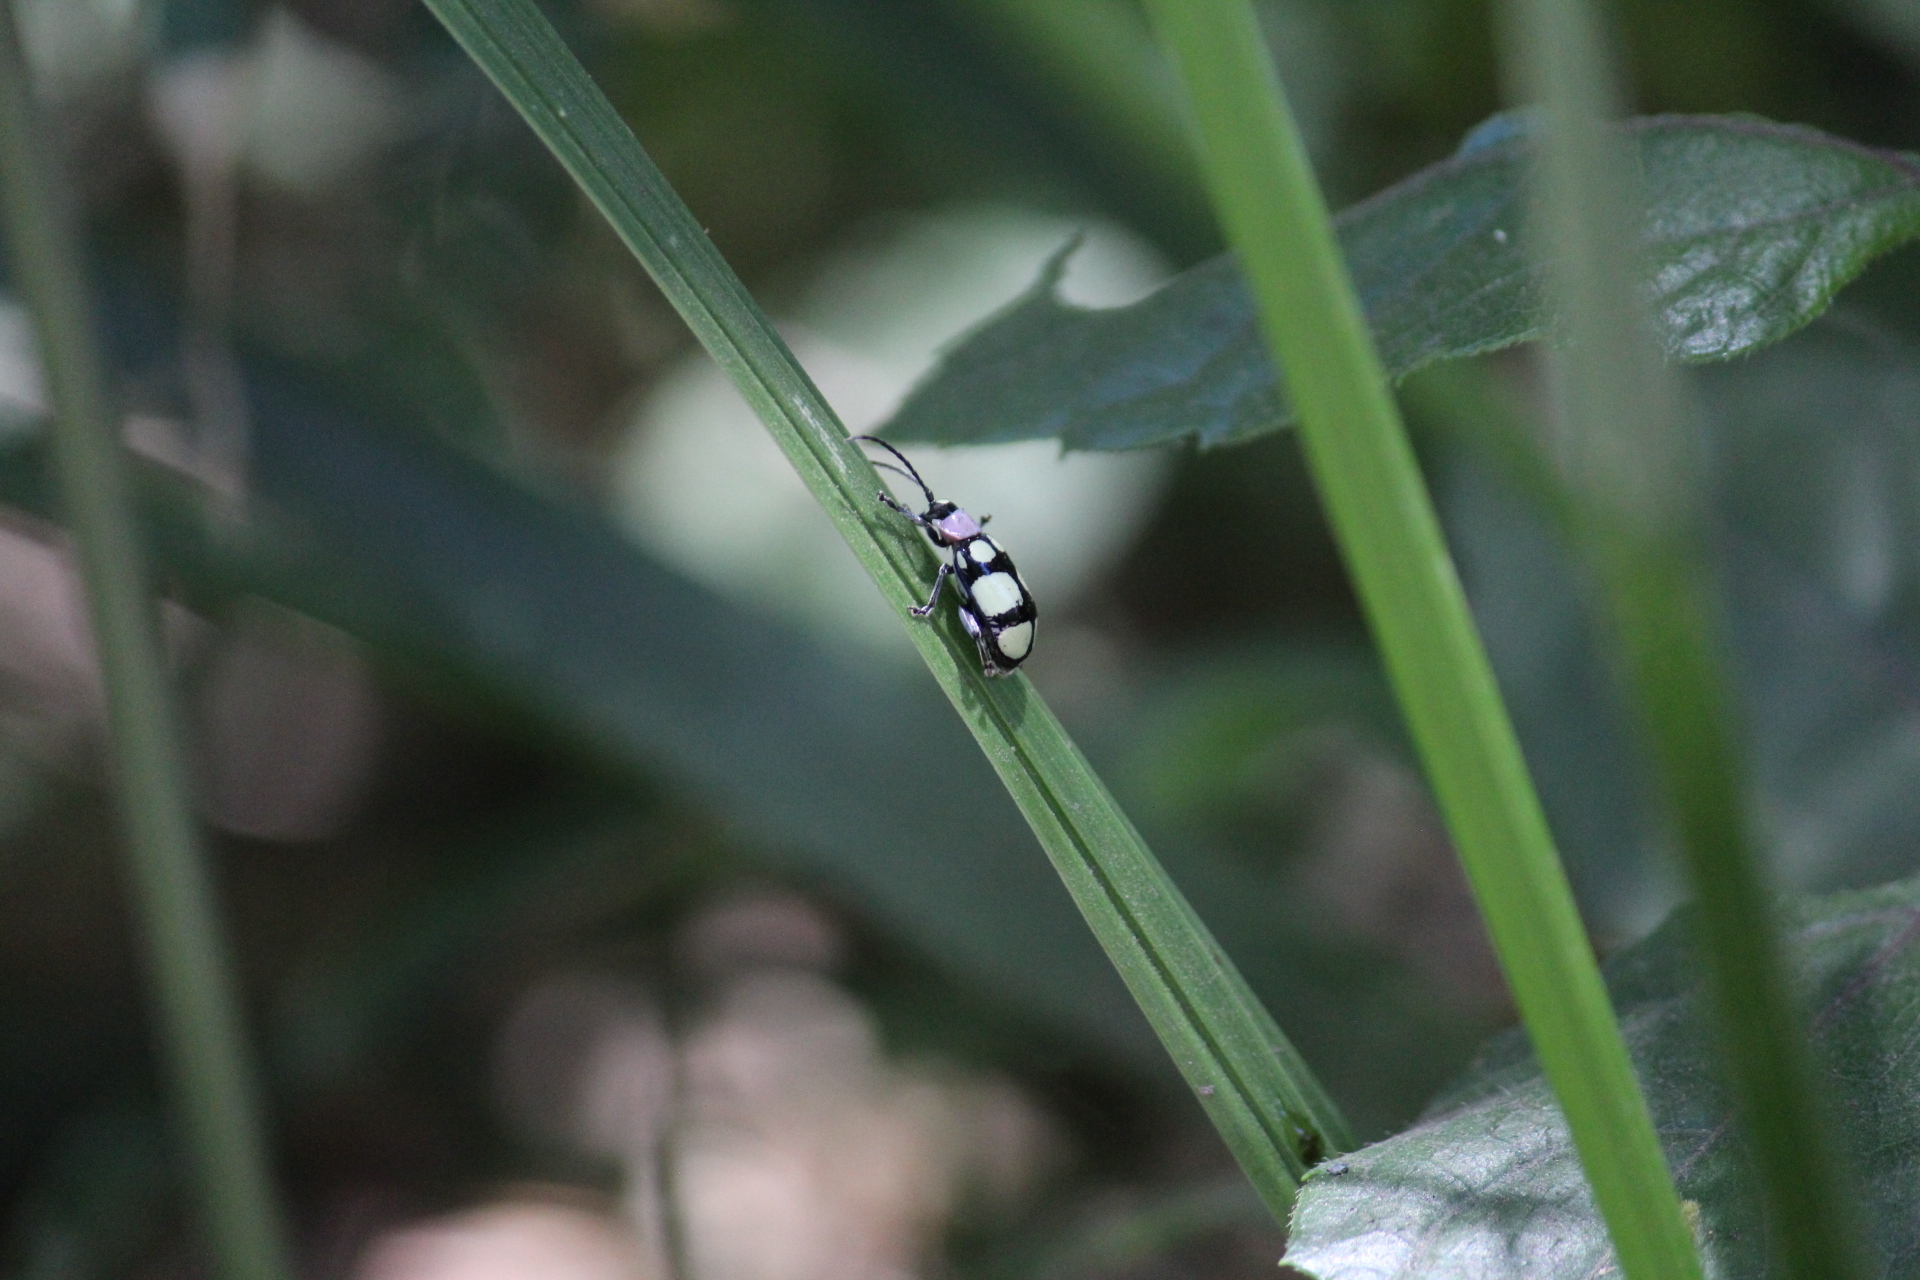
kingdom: Animalia
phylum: Arthropoda
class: Insecta
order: Coleoptera
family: Chrysomelidae
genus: Omophoita
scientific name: Omophoita
